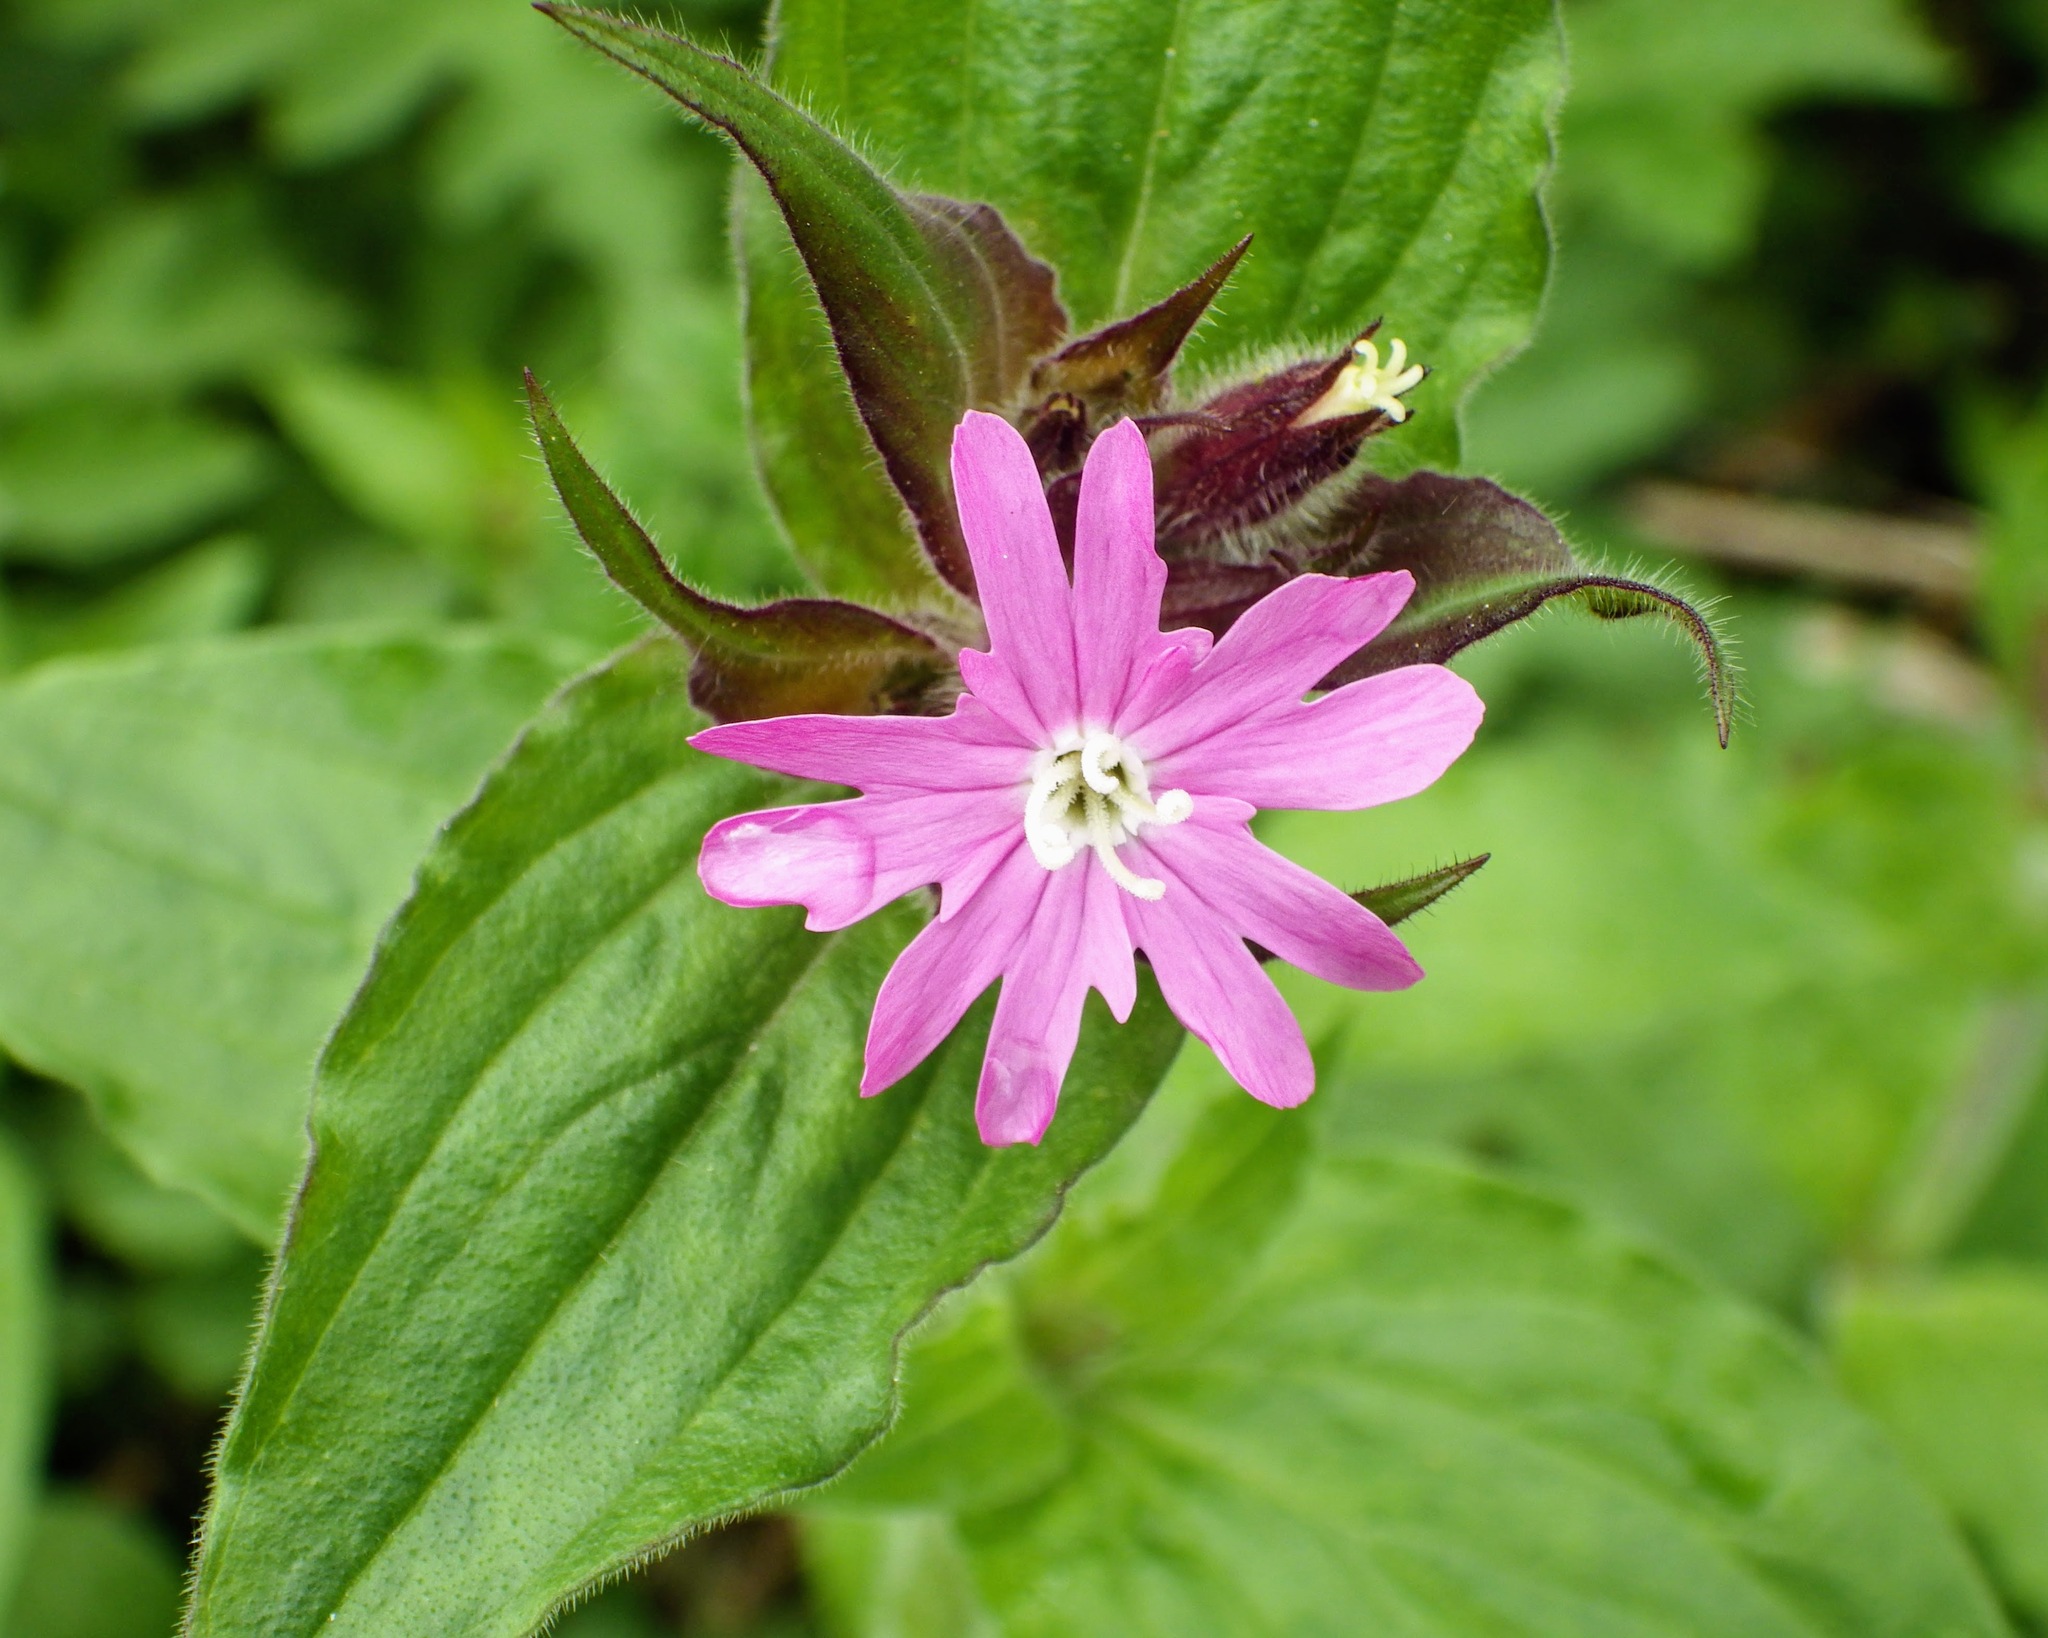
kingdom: Plantae
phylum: Tracheophyta
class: Magnoliopsida
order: Caryophyllales
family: Caryophyllaceae
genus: Silene
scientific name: Silene dioica
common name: Red campion
